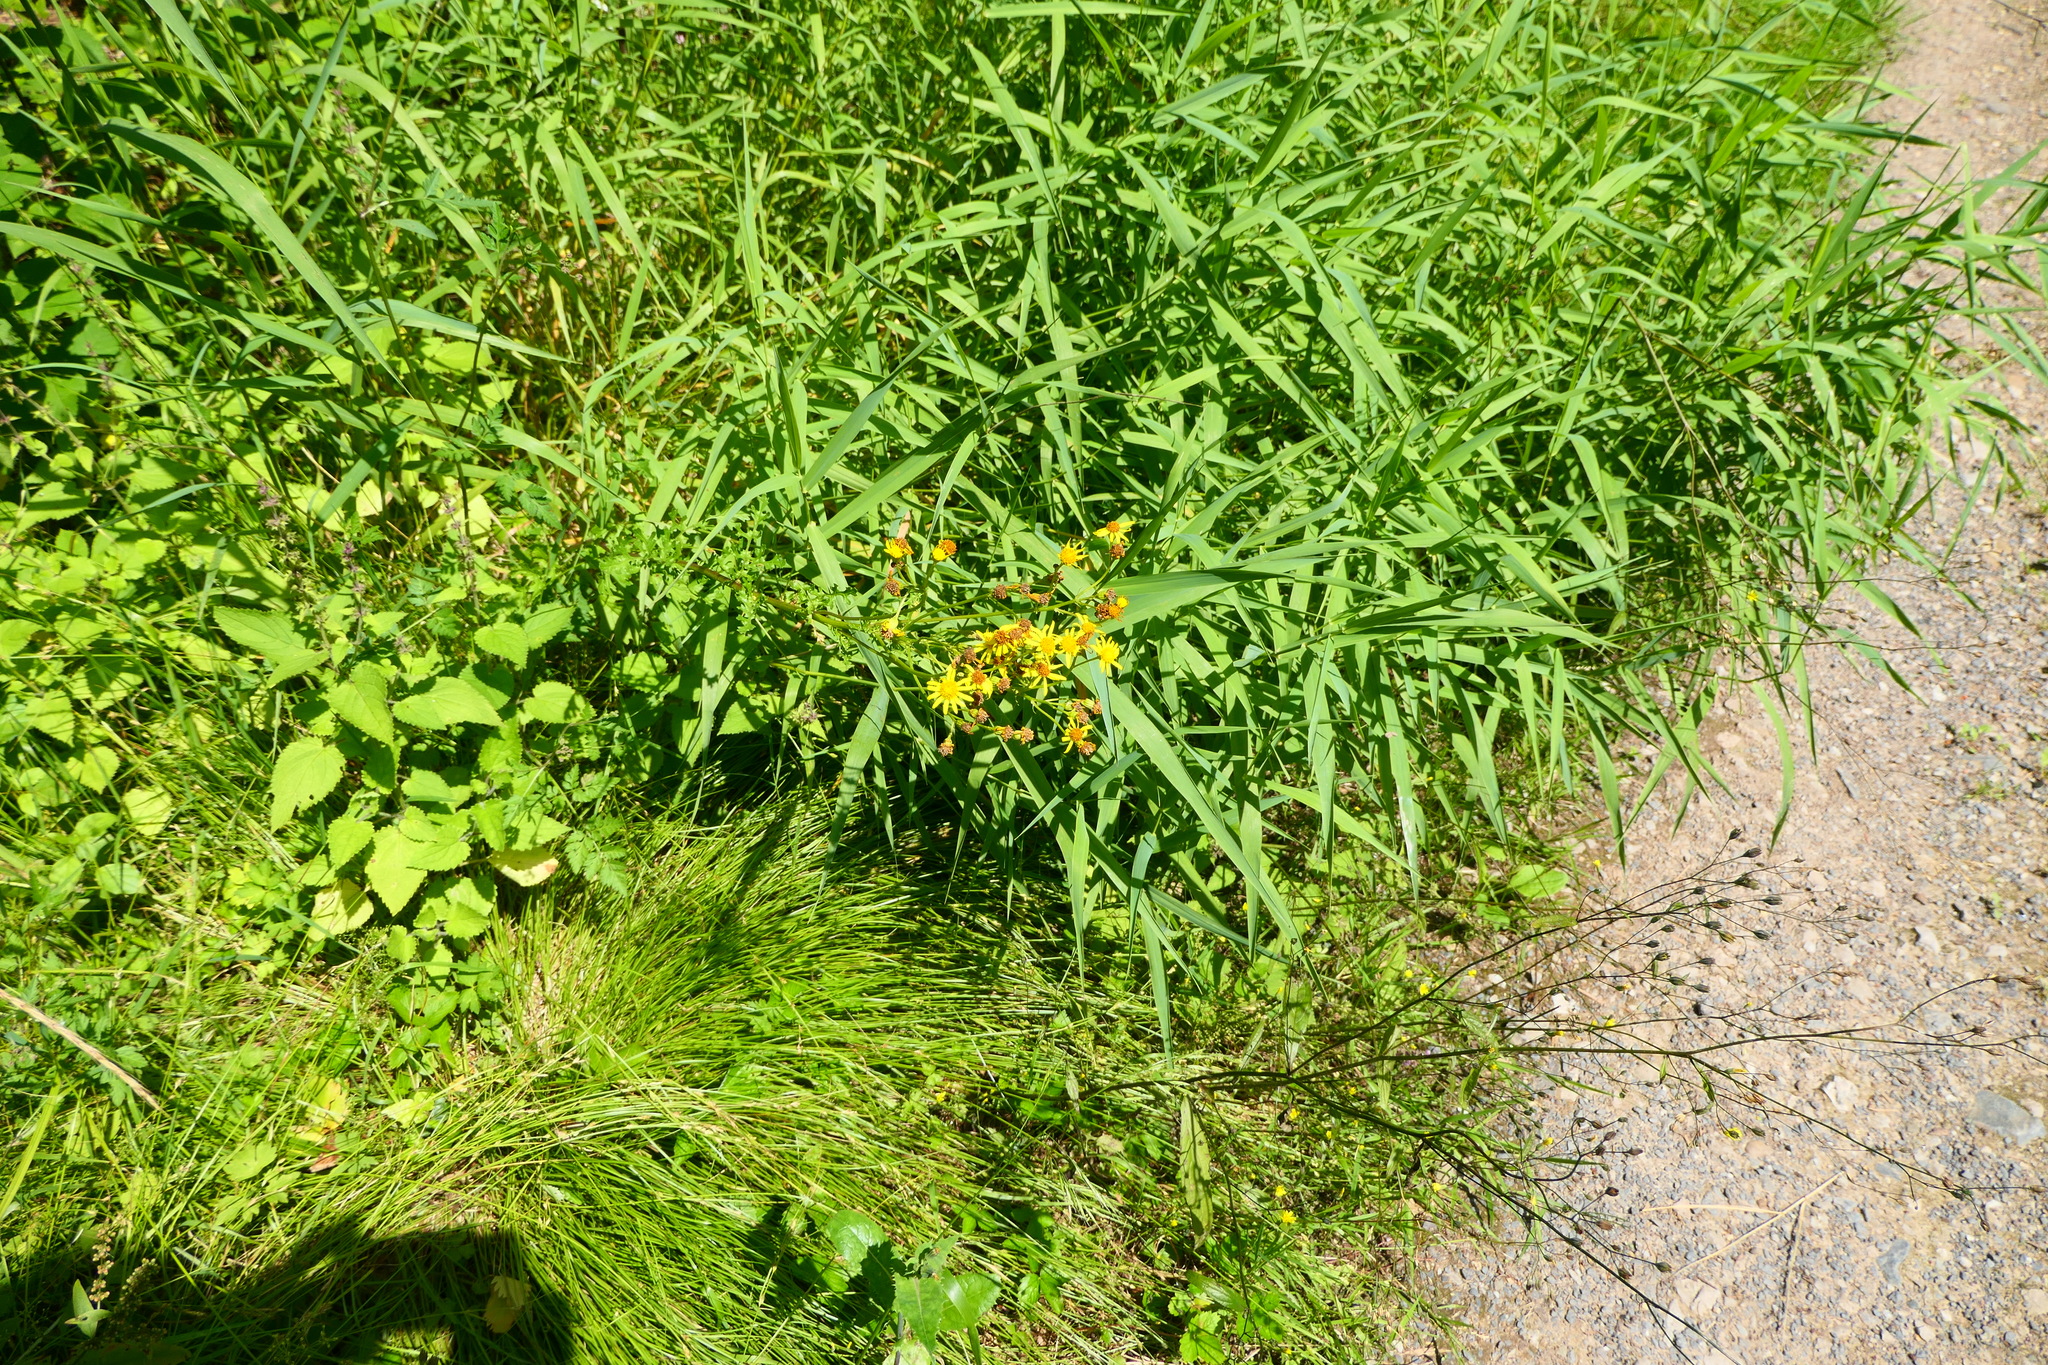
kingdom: Plantae
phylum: Tracheophyta
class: Magnoliopsida
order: Asterales
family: Asteraceae
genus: Jacobaea
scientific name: Jacobaea vulgaris
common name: Stinking willie
